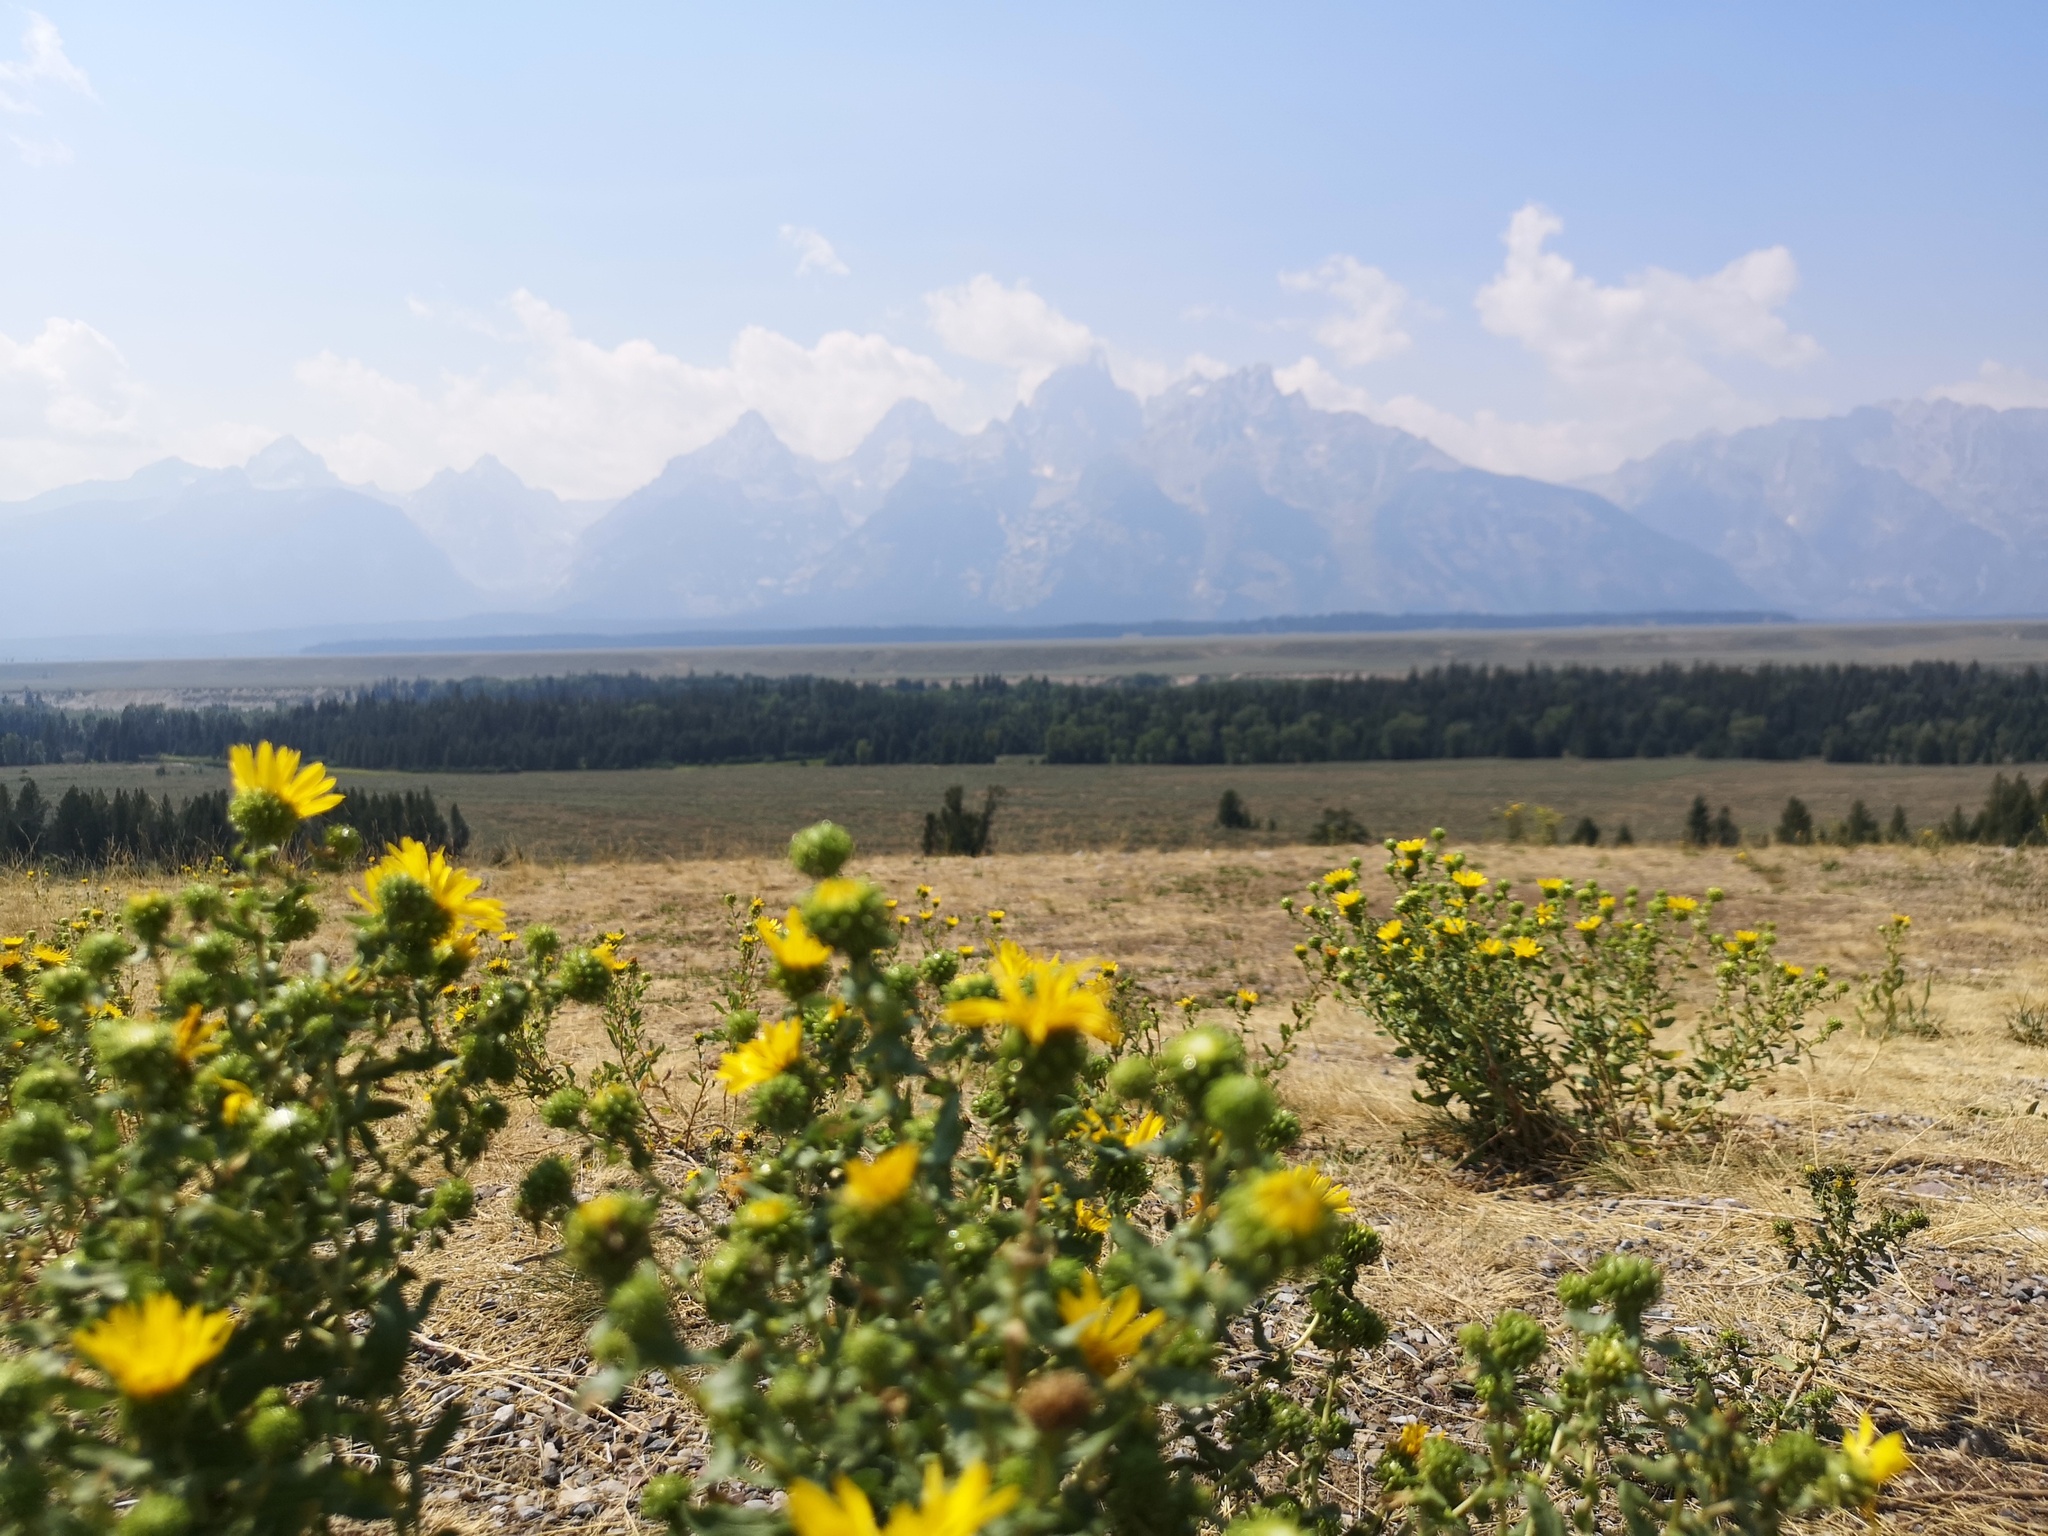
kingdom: Plantae
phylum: Tracheophyta
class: Magnoliopsida
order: Asterales
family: Asteraceae
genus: Grindelia
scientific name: Grindelia squarrosa
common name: Curly-cup gumweed
